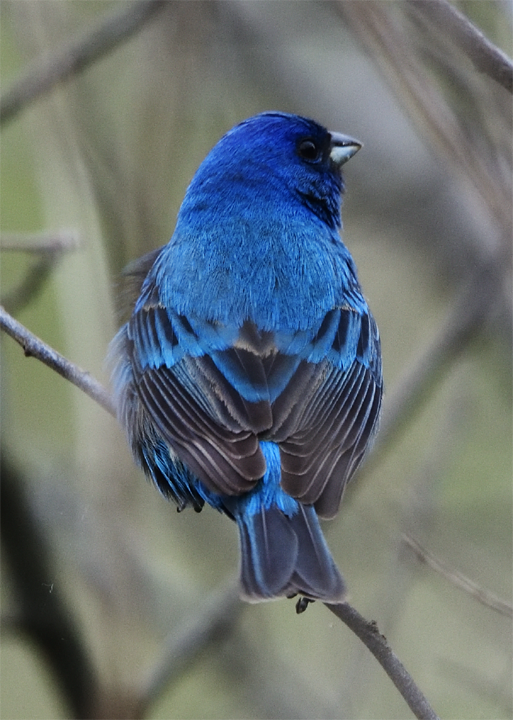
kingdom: Animalia
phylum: Chordata
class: Aves
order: Passeriformes
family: Cardinalidae
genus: Passerina
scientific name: Passerina cyanea
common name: Indigo bunting
